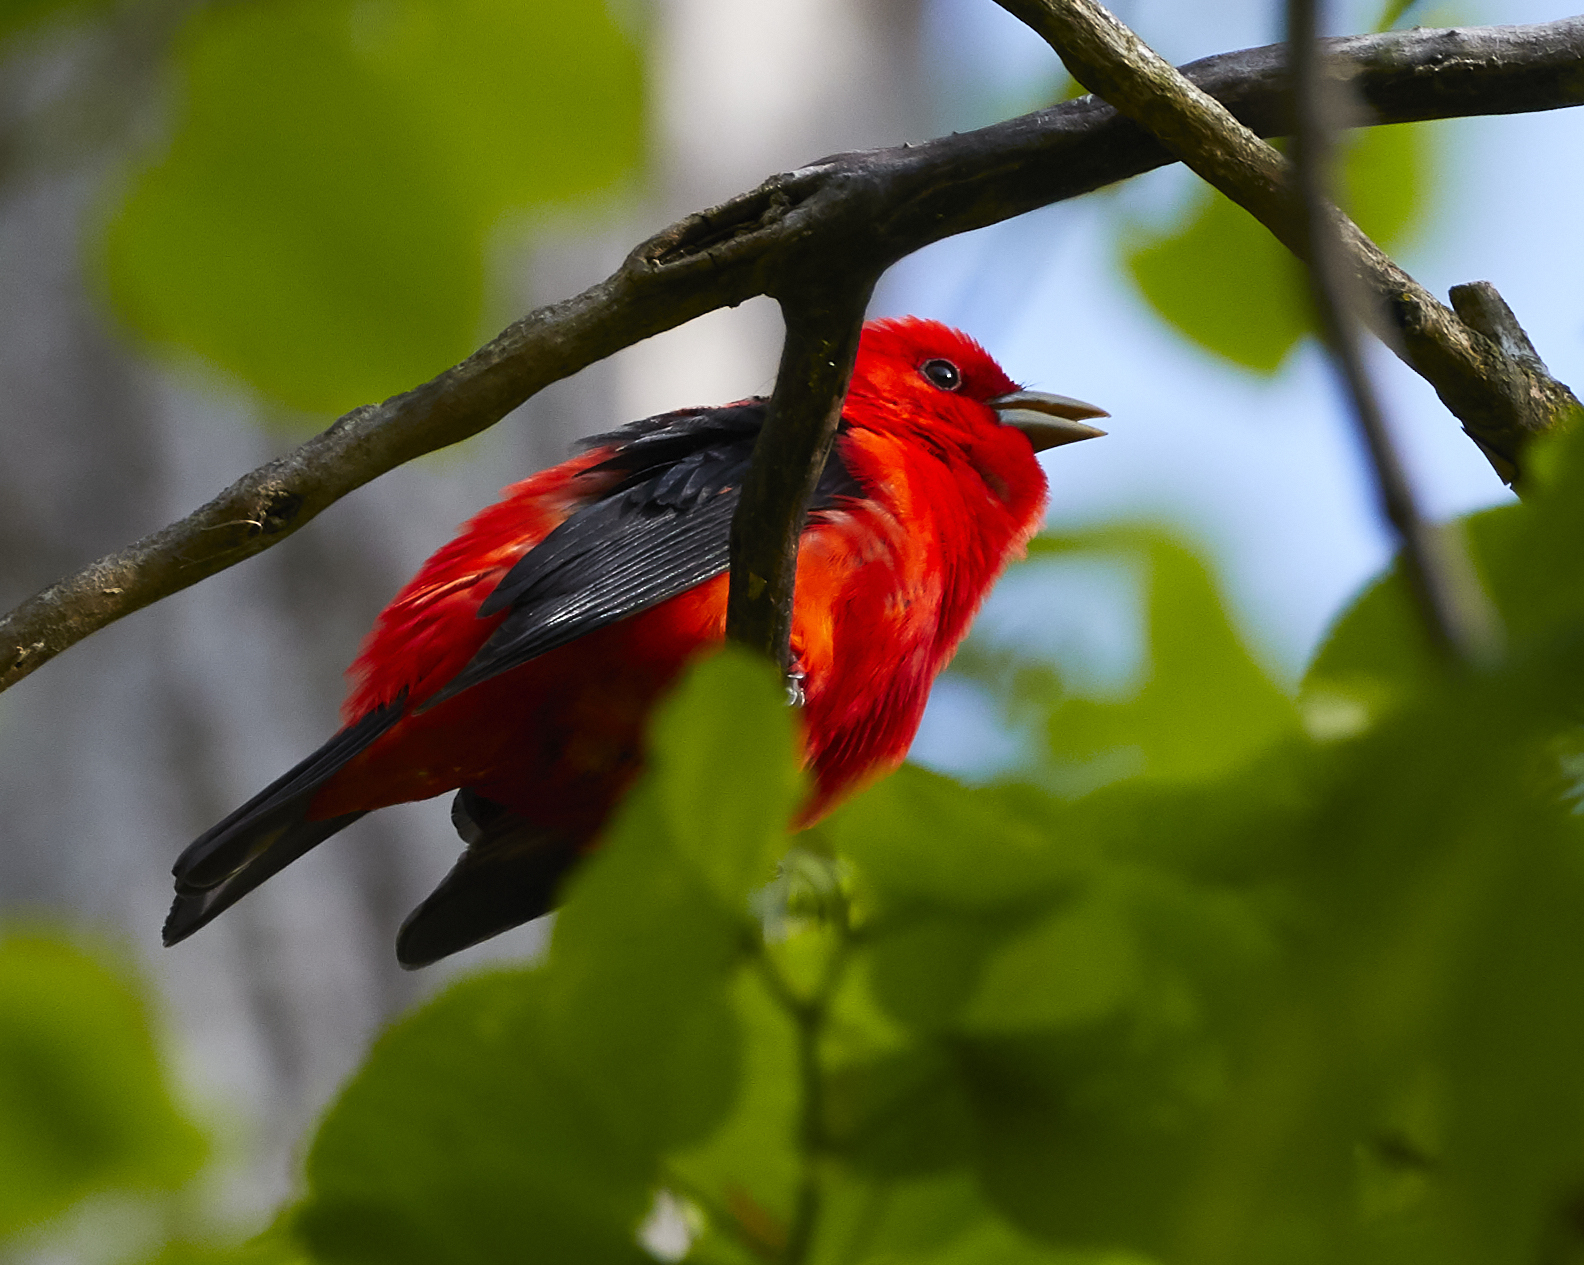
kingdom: Animalia
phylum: Chordata
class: Aves
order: Passeriformes
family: Cardinalidae
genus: Piranga
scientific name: Piranga olivacea
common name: Scarlet tanager
